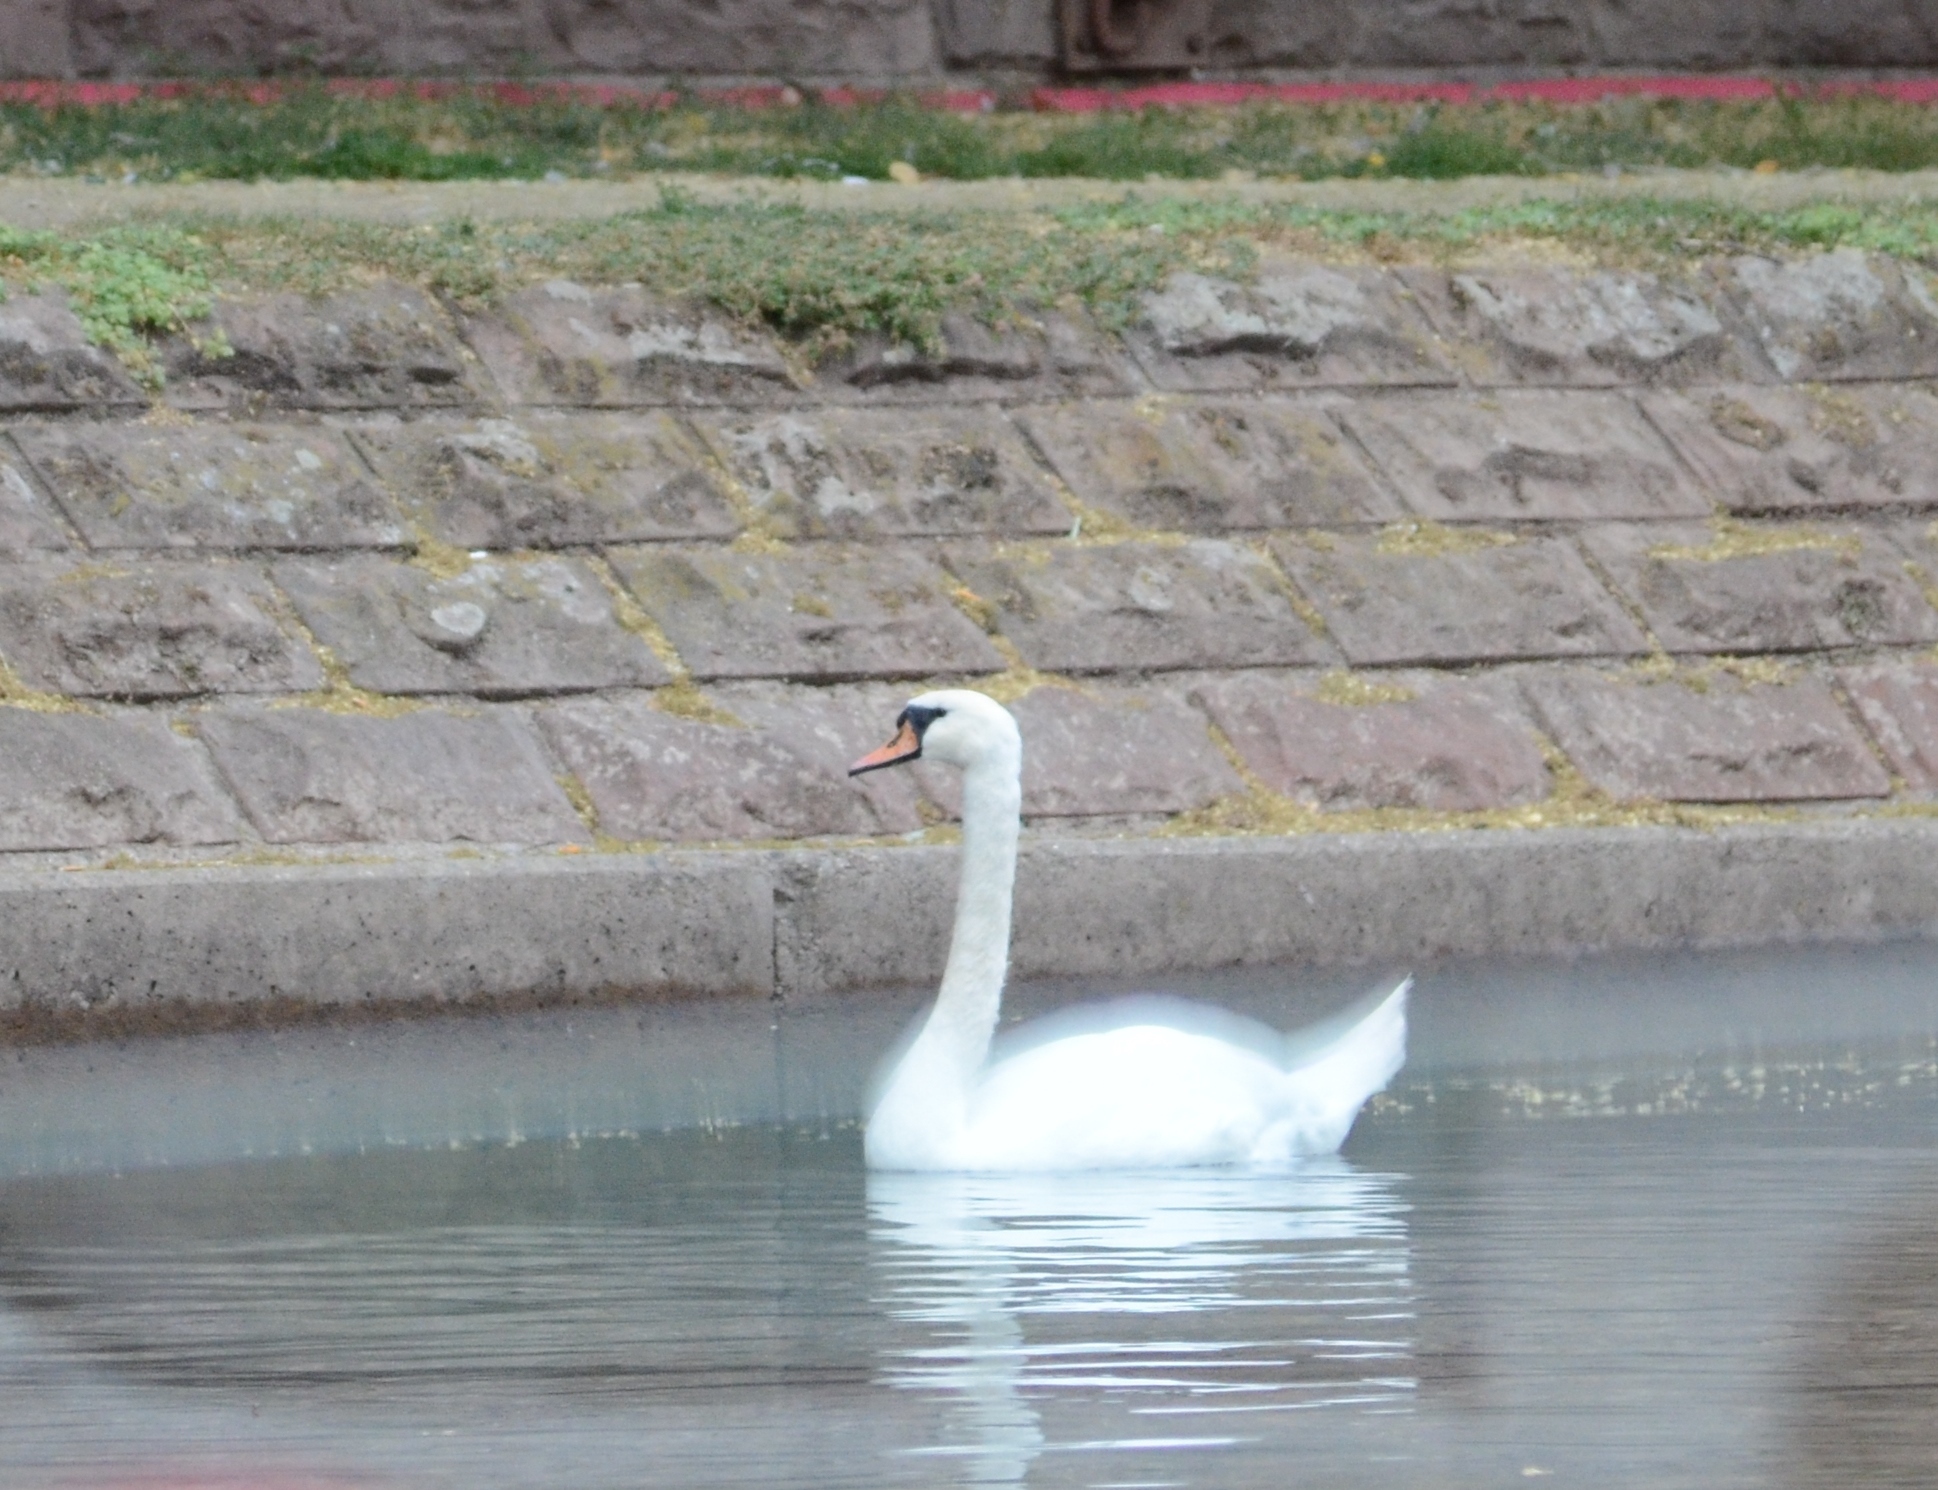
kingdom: Animalia
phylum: Chordata
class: Aves
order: Anseriformes
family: Anatidae
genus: Cygnus
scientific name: Cygnus olor
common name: Mute swan
